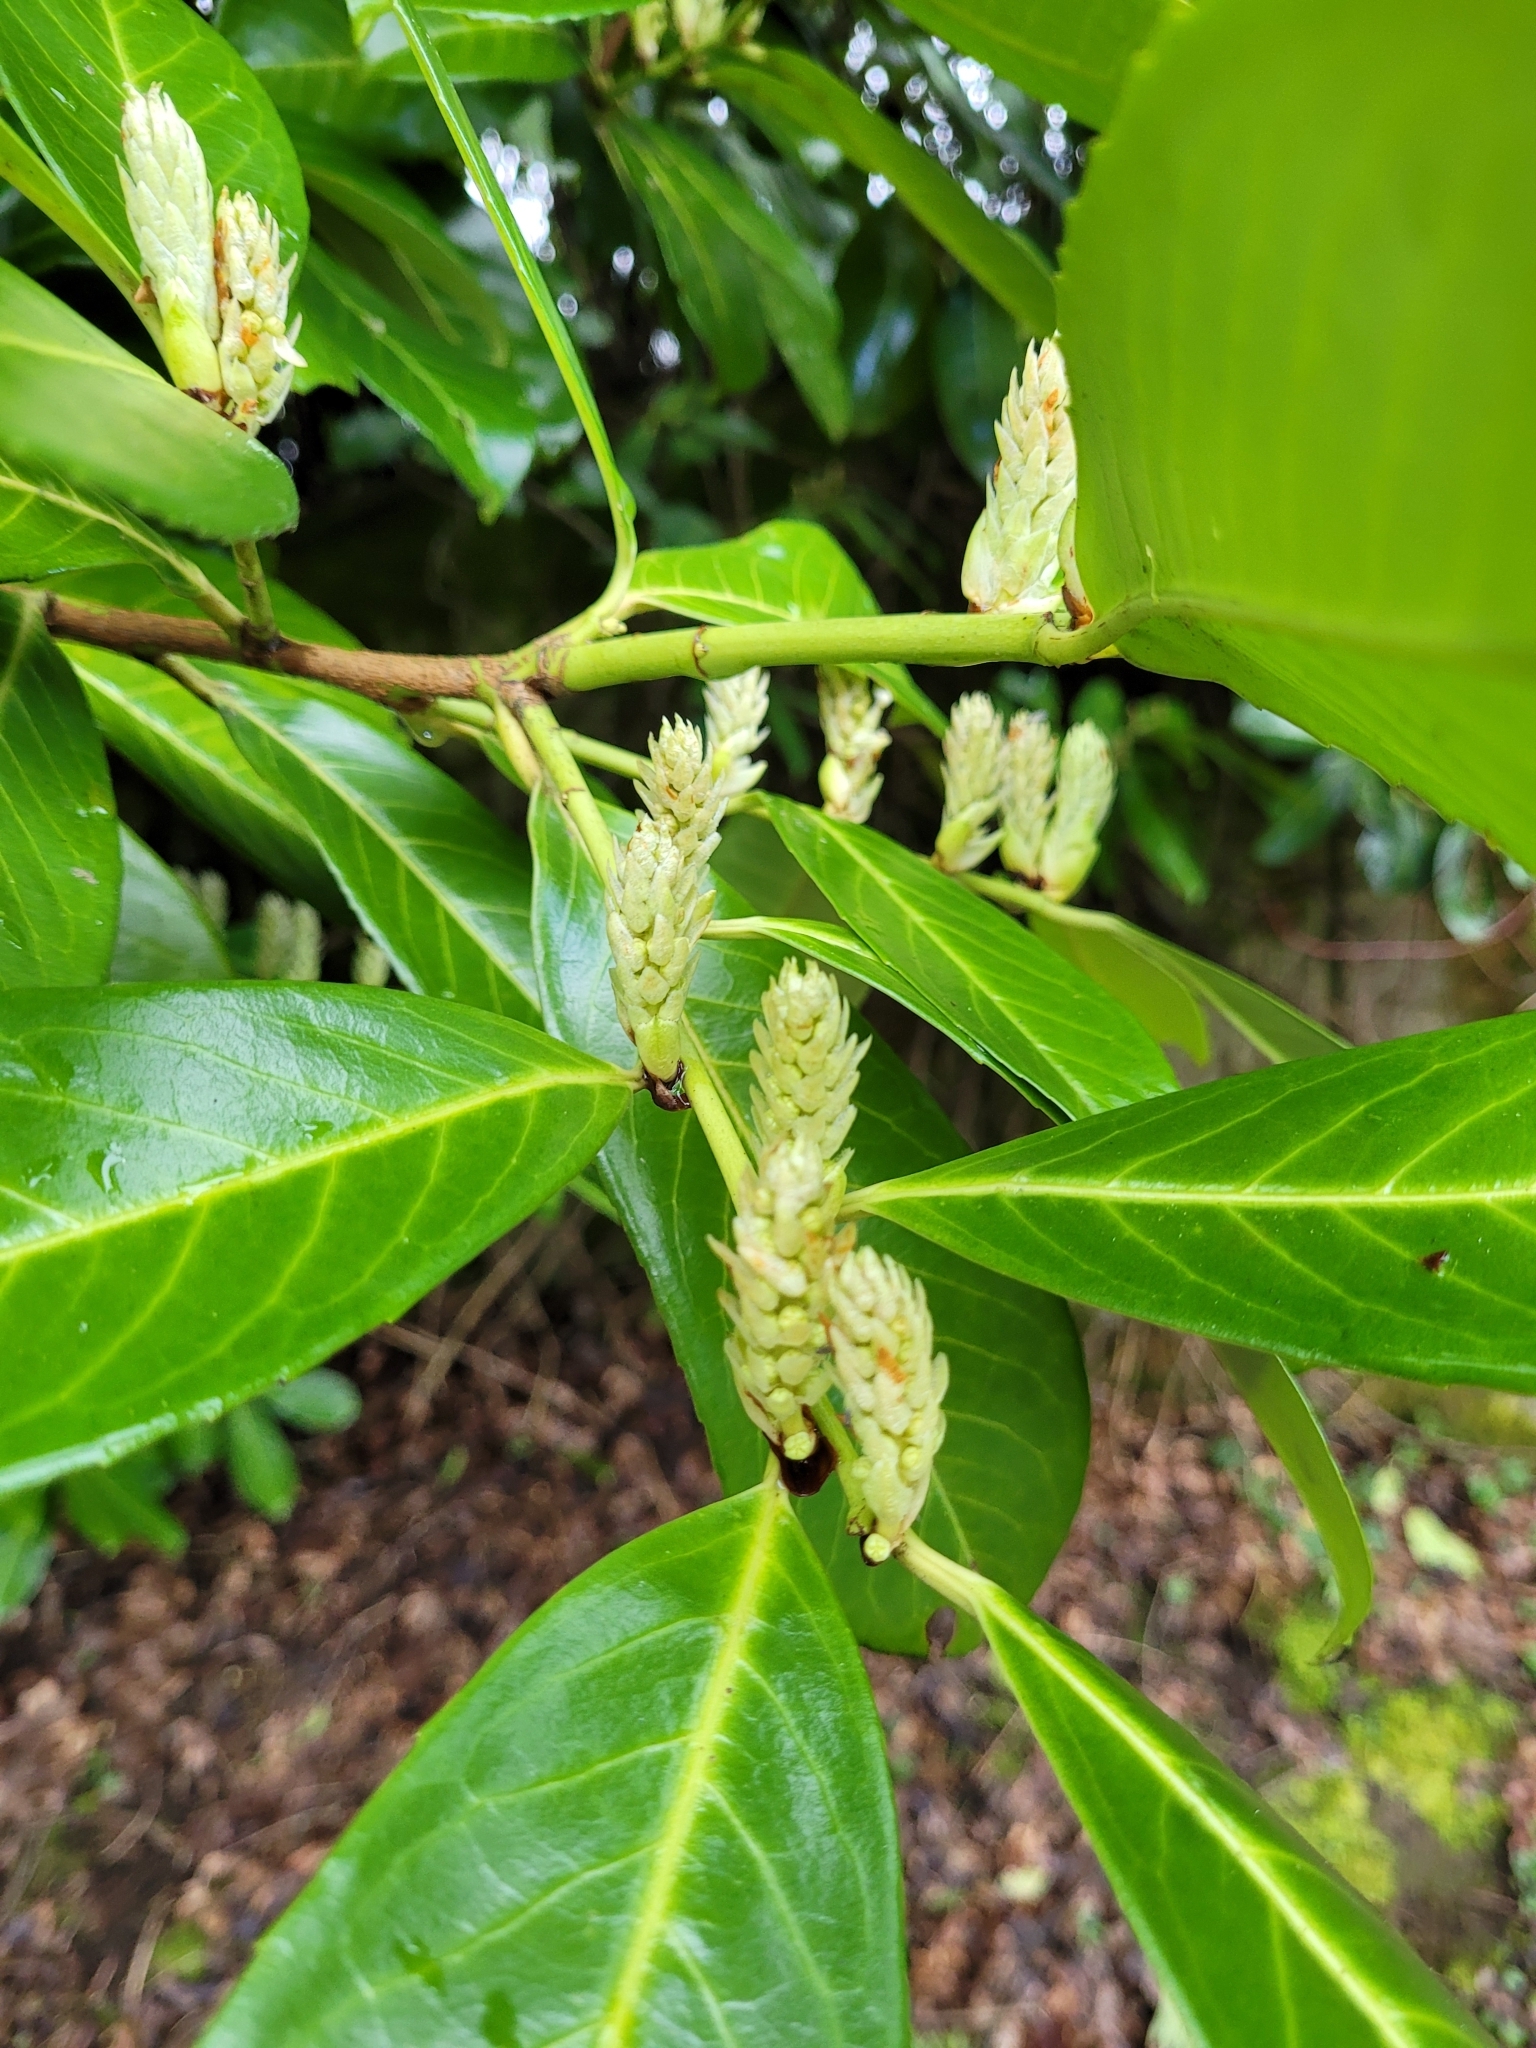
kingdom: Plantae
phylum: Tracheophyta
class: Magnoliopsida
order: Rosales
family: Rosaceae
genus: Prunus
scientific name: Prunus laurocerasus
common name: Cherry laurel
